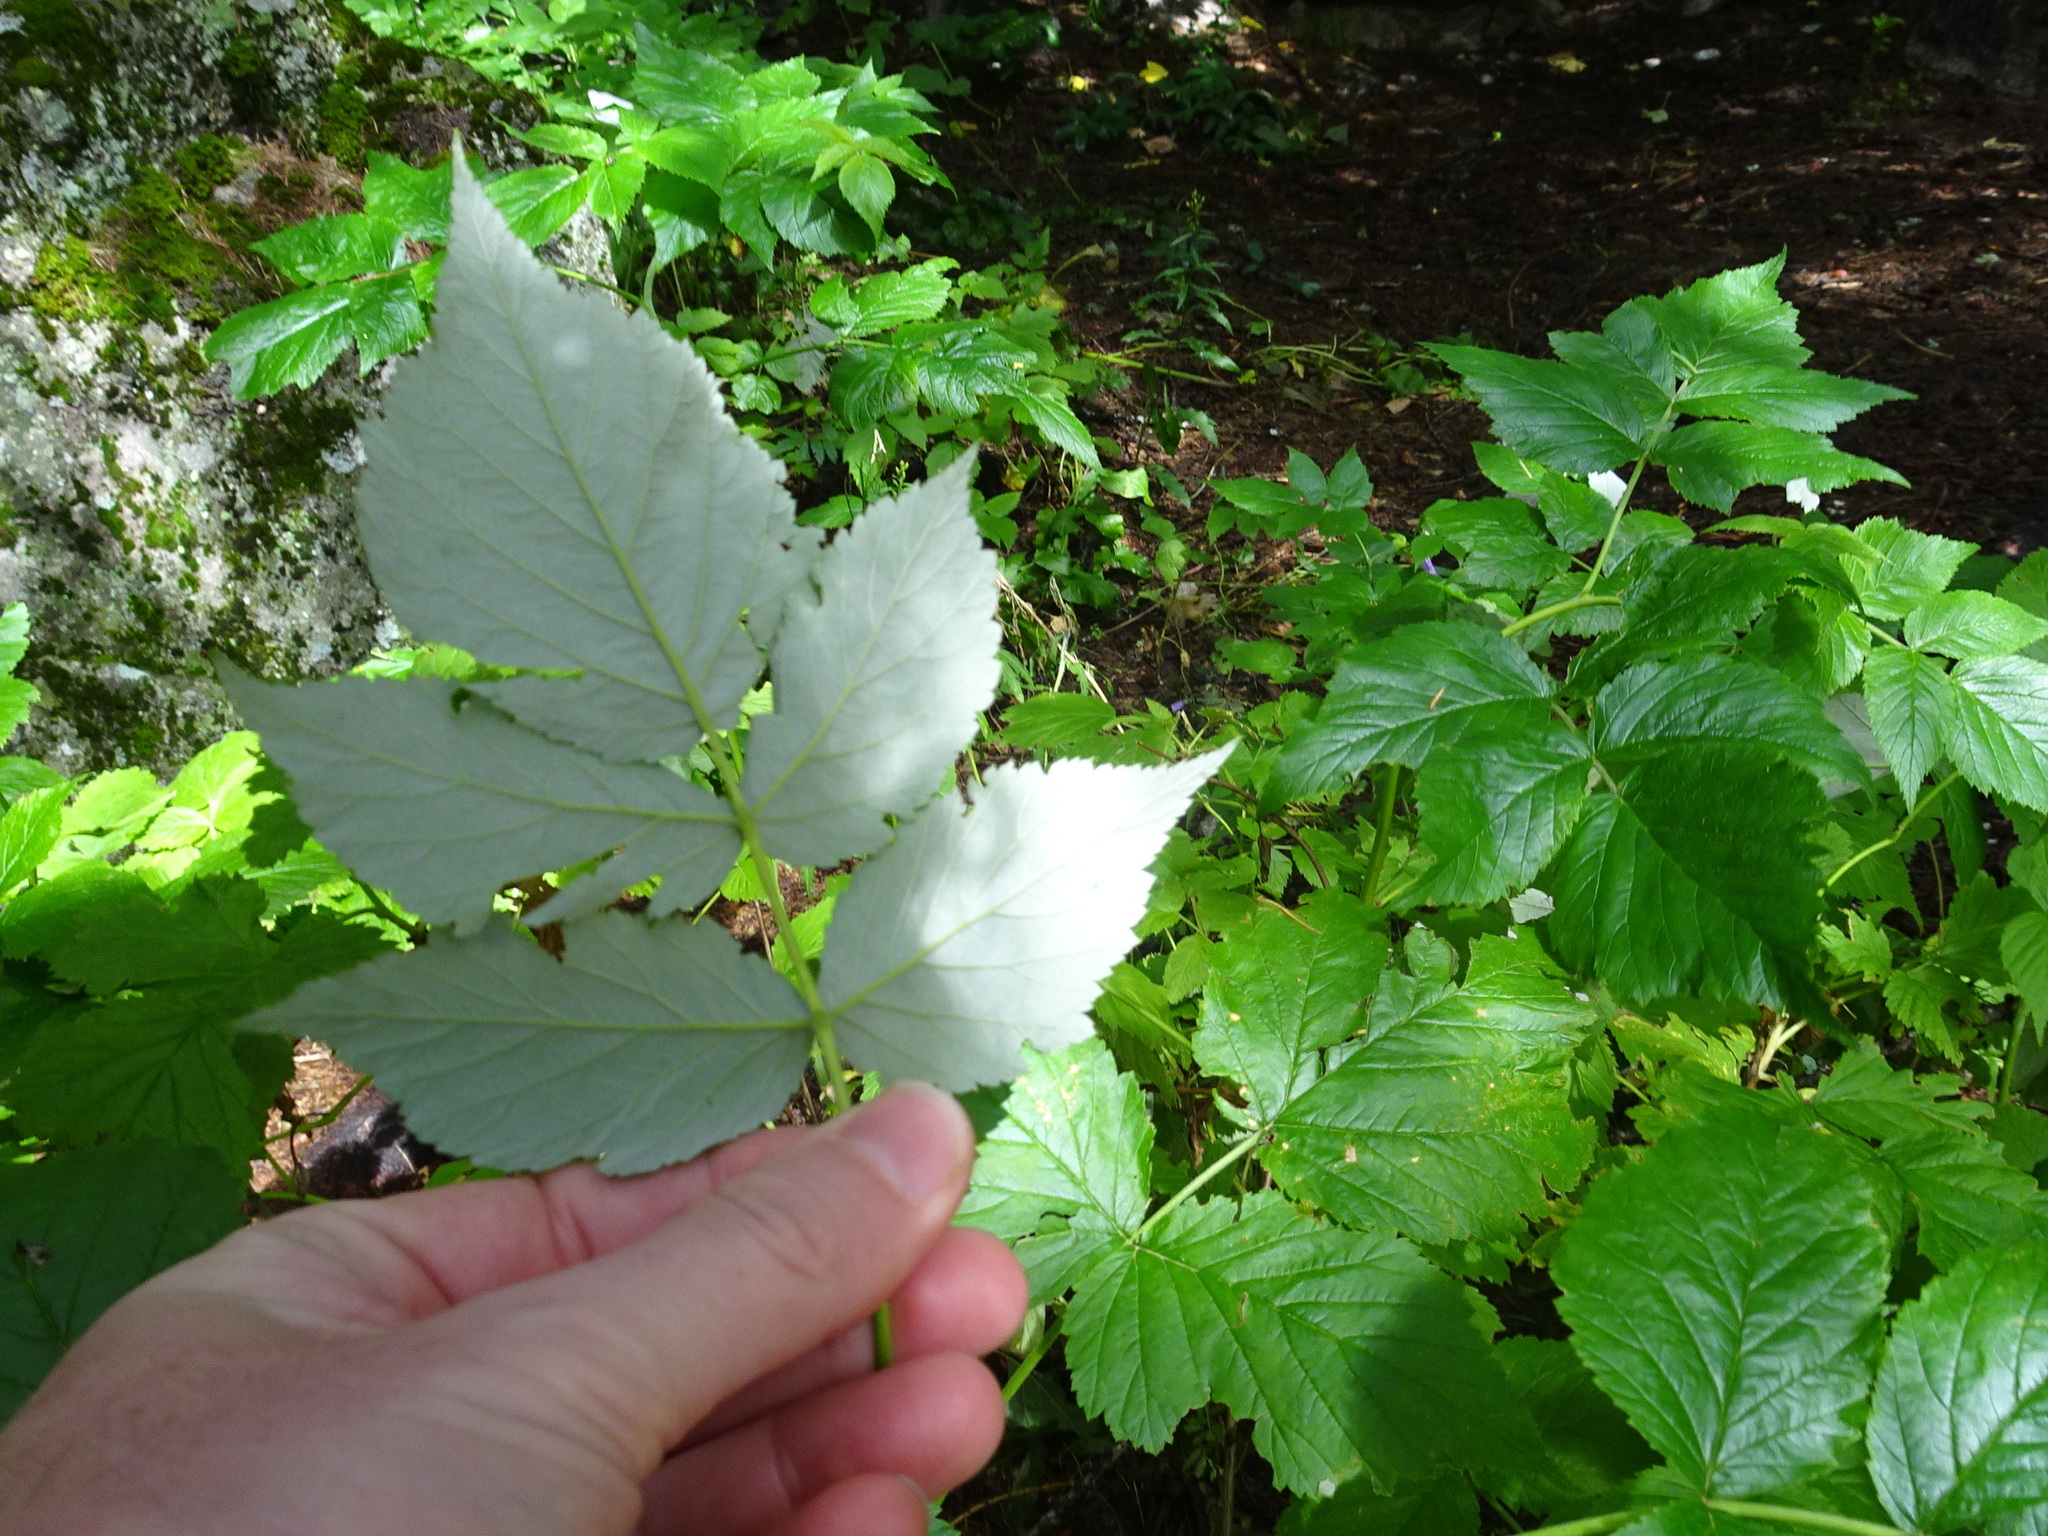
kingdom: Plantae
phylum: Tracheophyta
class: Magnoliopsida
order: Rosales
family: Rosaceae
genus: Rubus
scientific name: Rubus idaeus
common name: Raspberry
